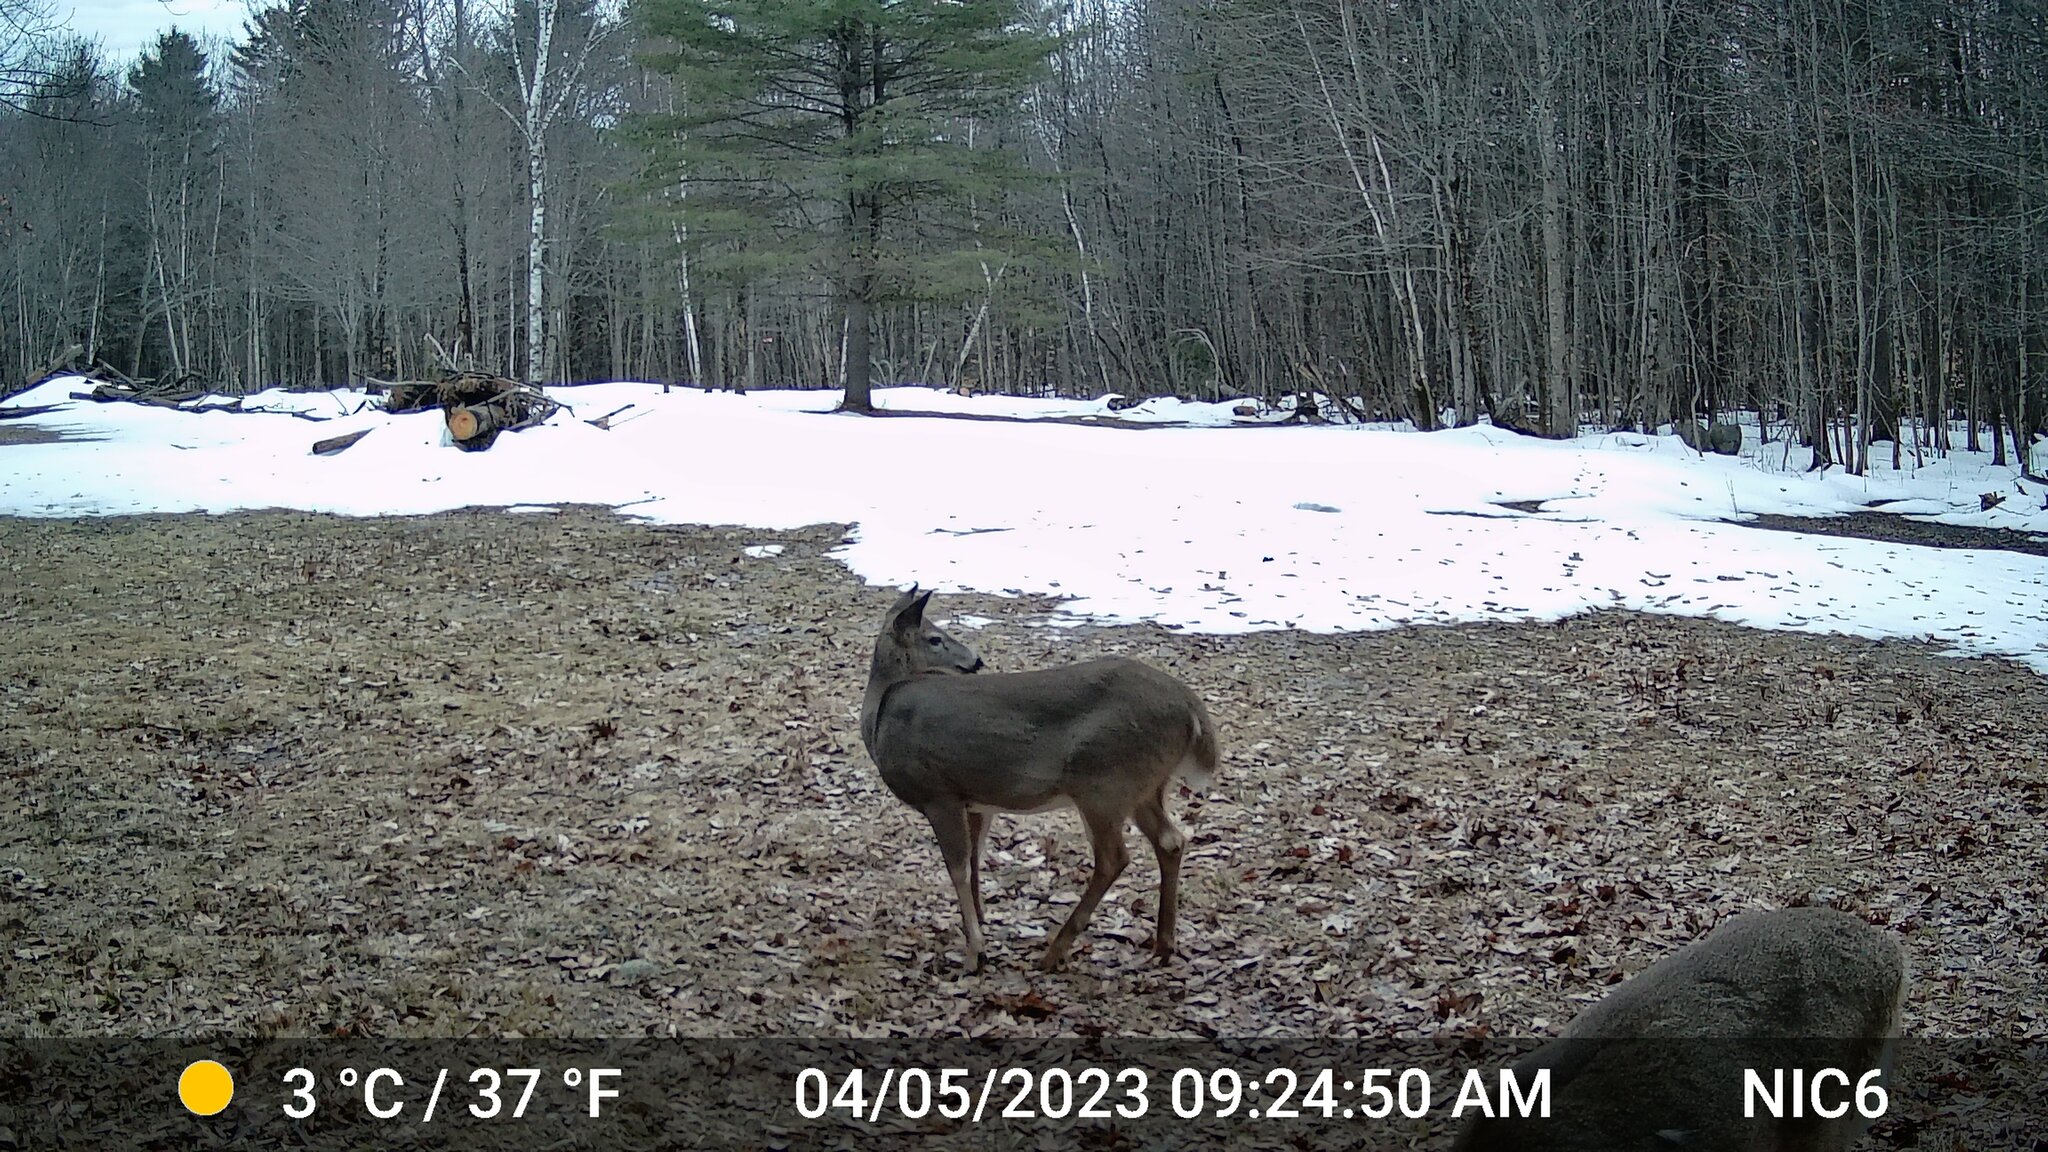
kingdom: Animalia
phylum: Chordata
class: Mammalia
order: Artiodactyla
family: Cervidae
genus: Odocoileus
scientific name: Odocoileus virginianus
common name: White-tailed deer
